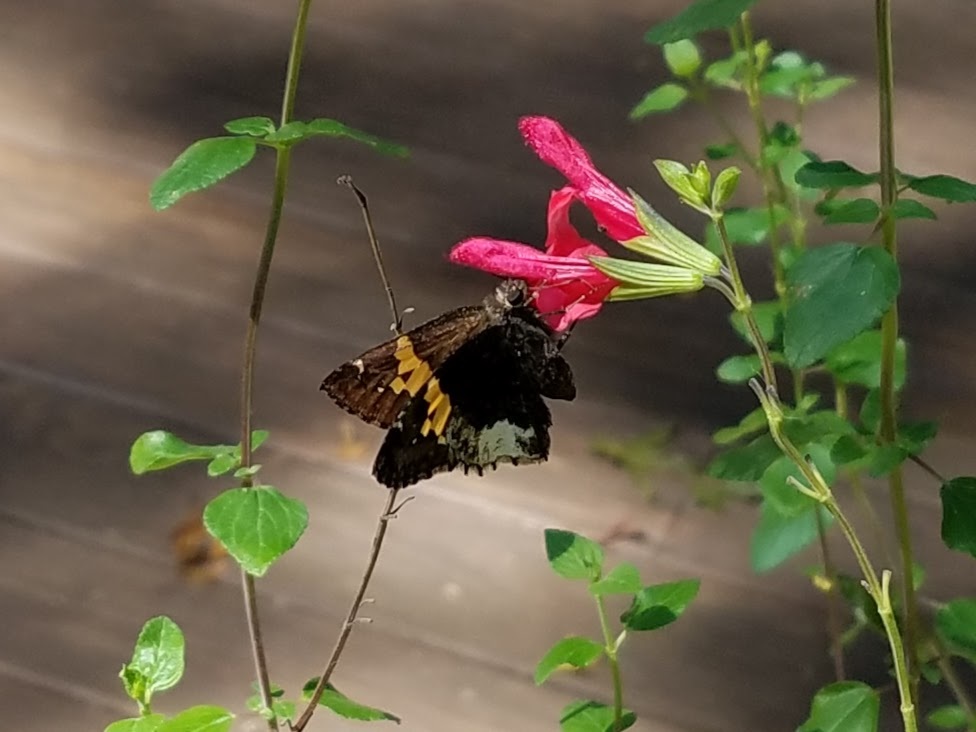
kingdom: Animalia
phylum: Arthropoda
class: Insecta
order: Lepidoptera
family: Hesperiidae
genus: Thorybes
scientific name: Thorybes lyciades
